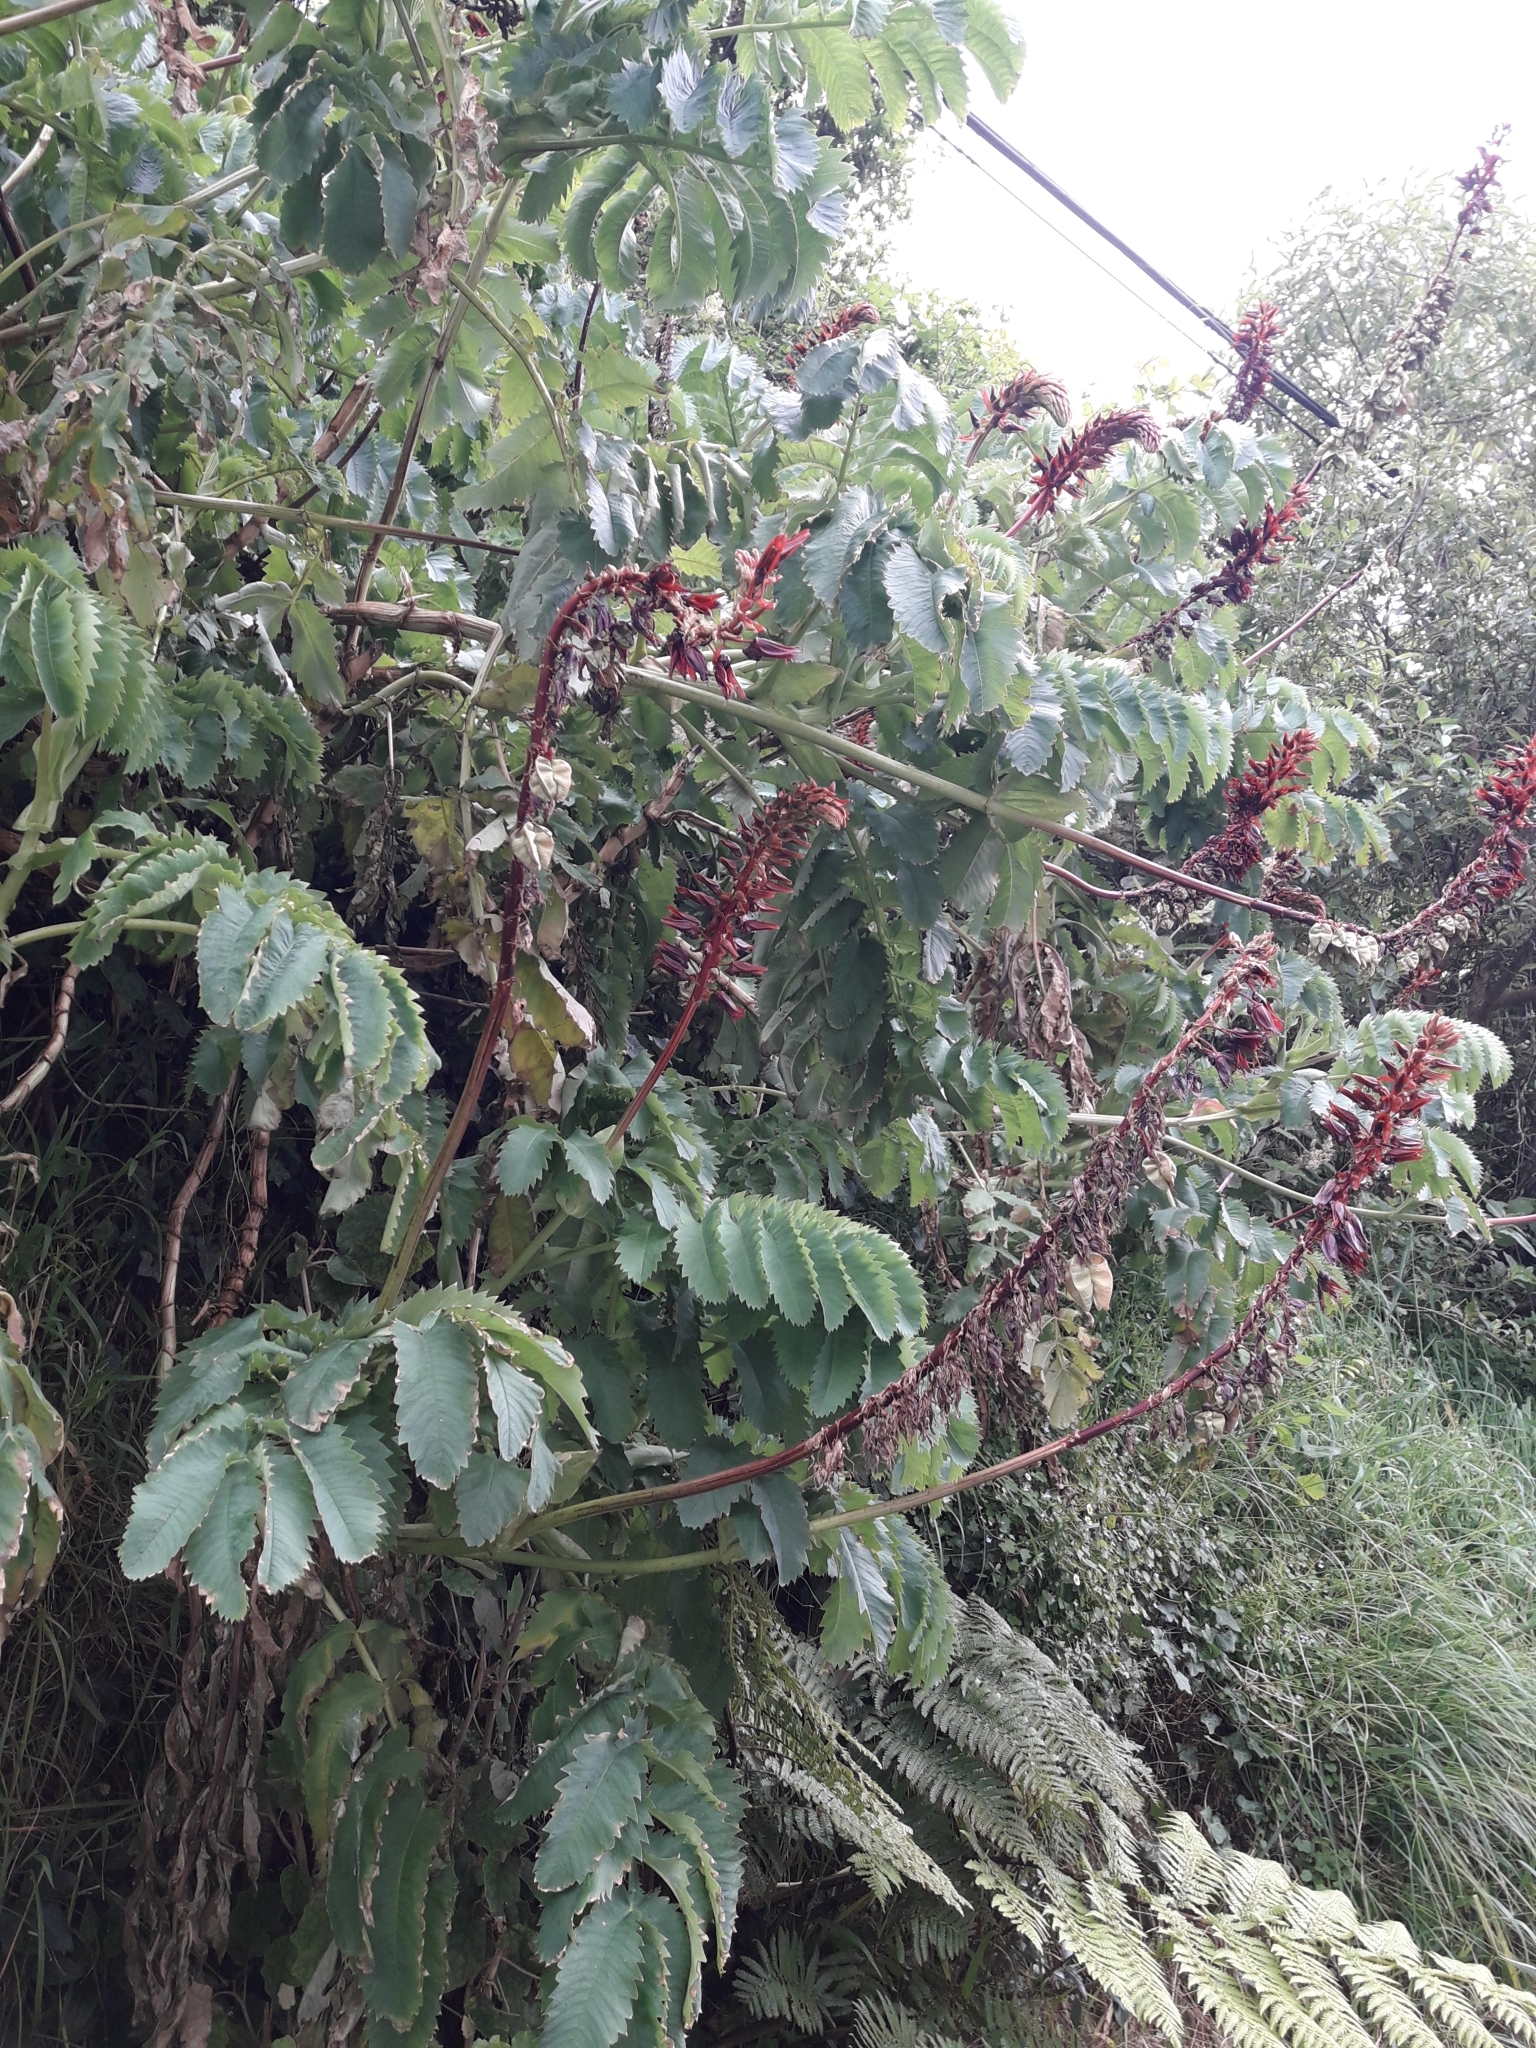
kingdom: Plantae
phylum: Tracheophyta
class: Magnoliopsida
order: Geraniales
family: Melianthaceae
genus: Melianthus
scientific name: Melianthus major
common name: Honey-flower
